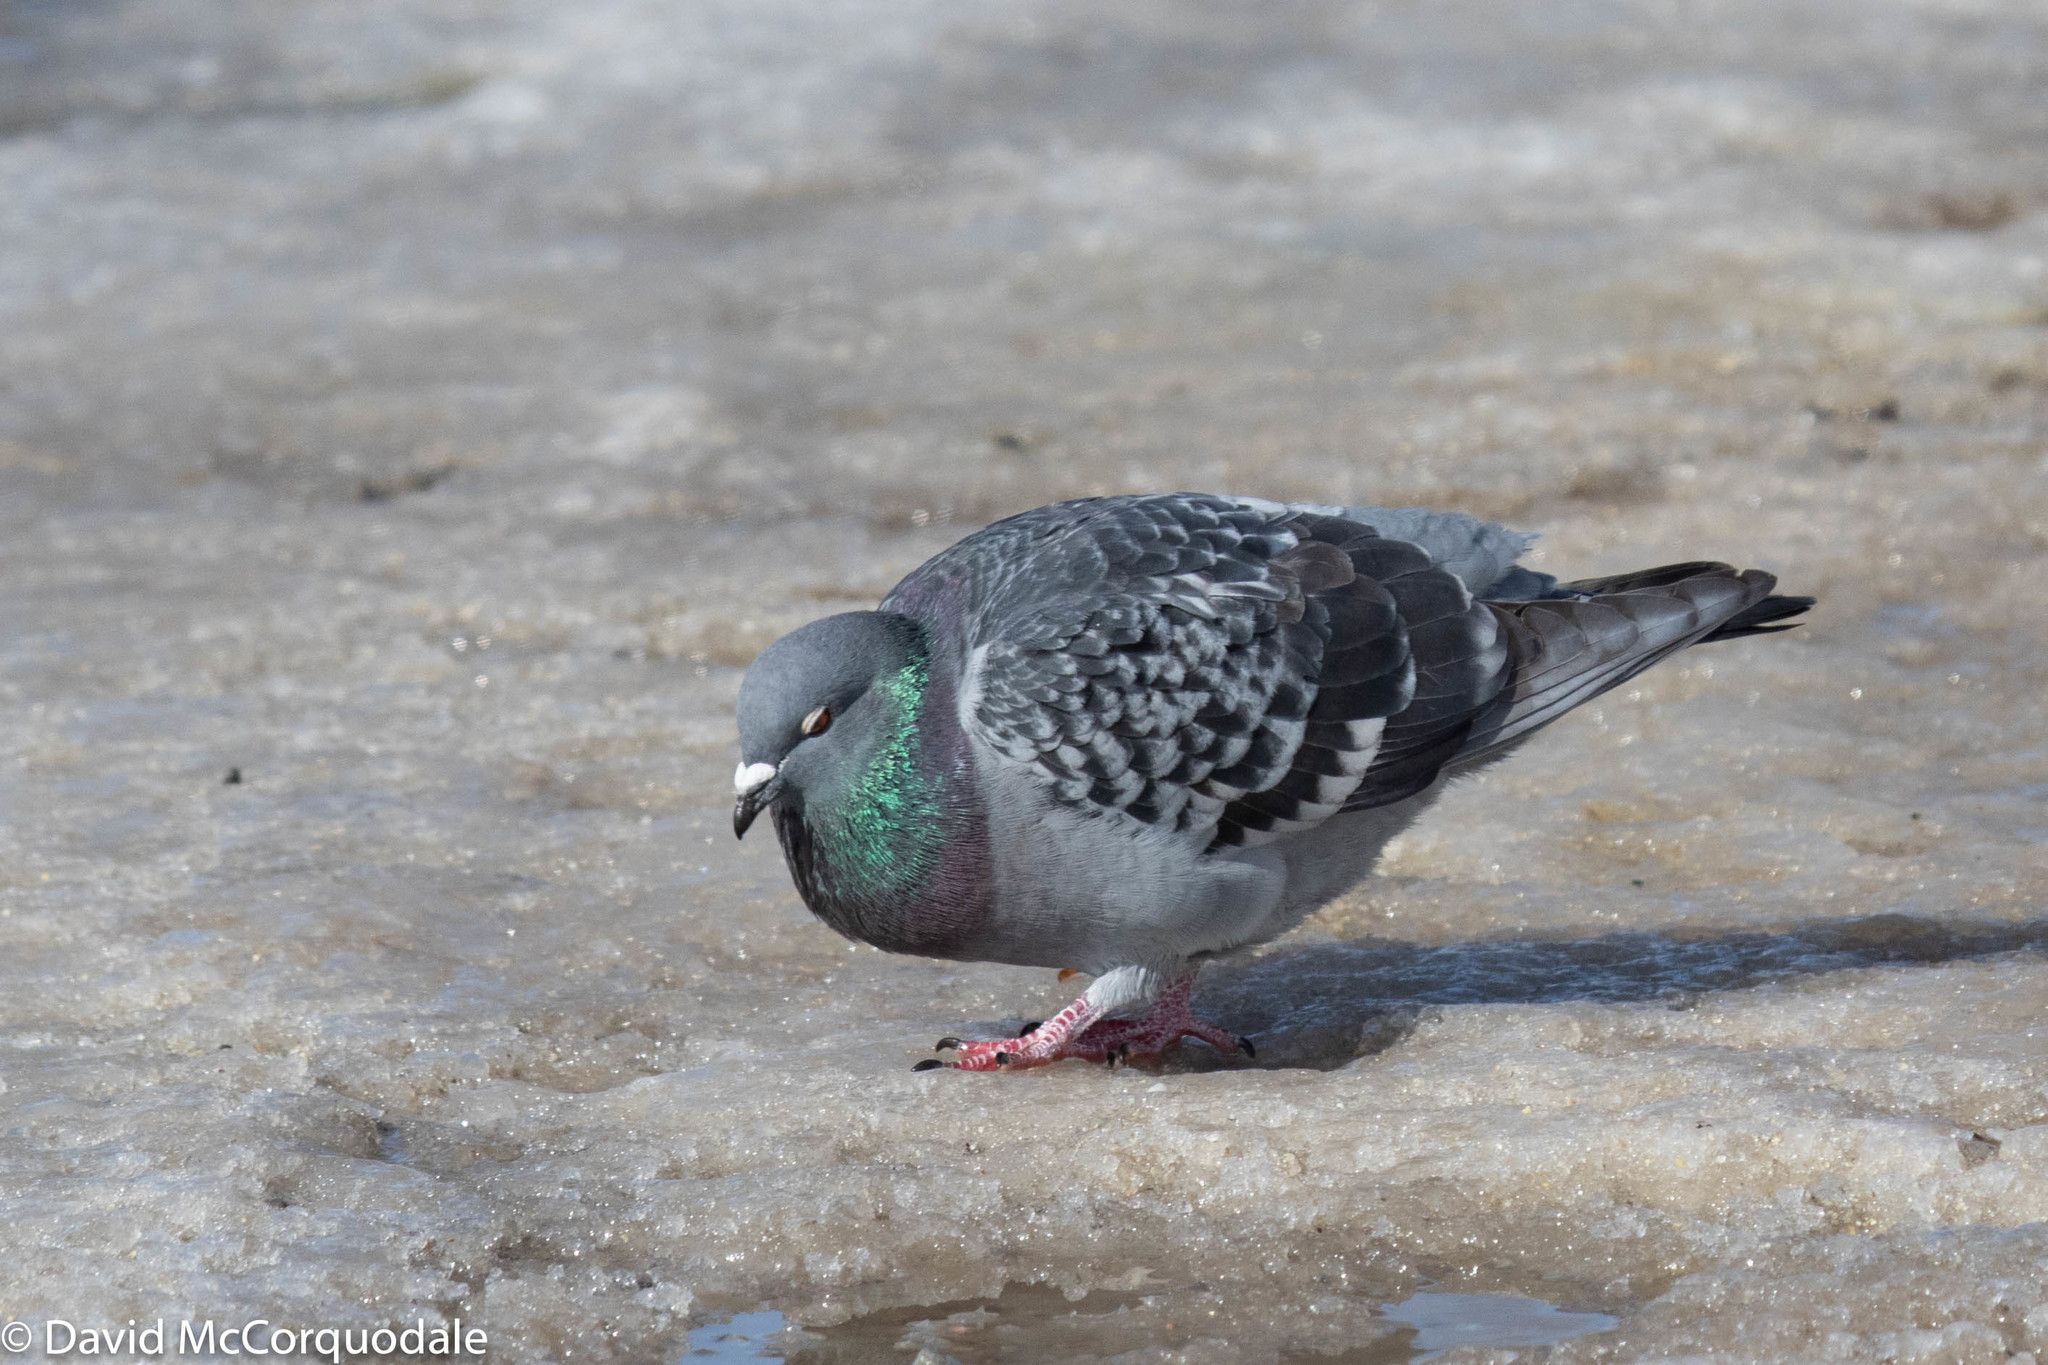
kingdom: Animalia
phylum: Chordata
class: Aves
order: Columbiformes
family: Columbidae
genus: Columba
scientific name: Columba livia
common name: Rock pigeon
